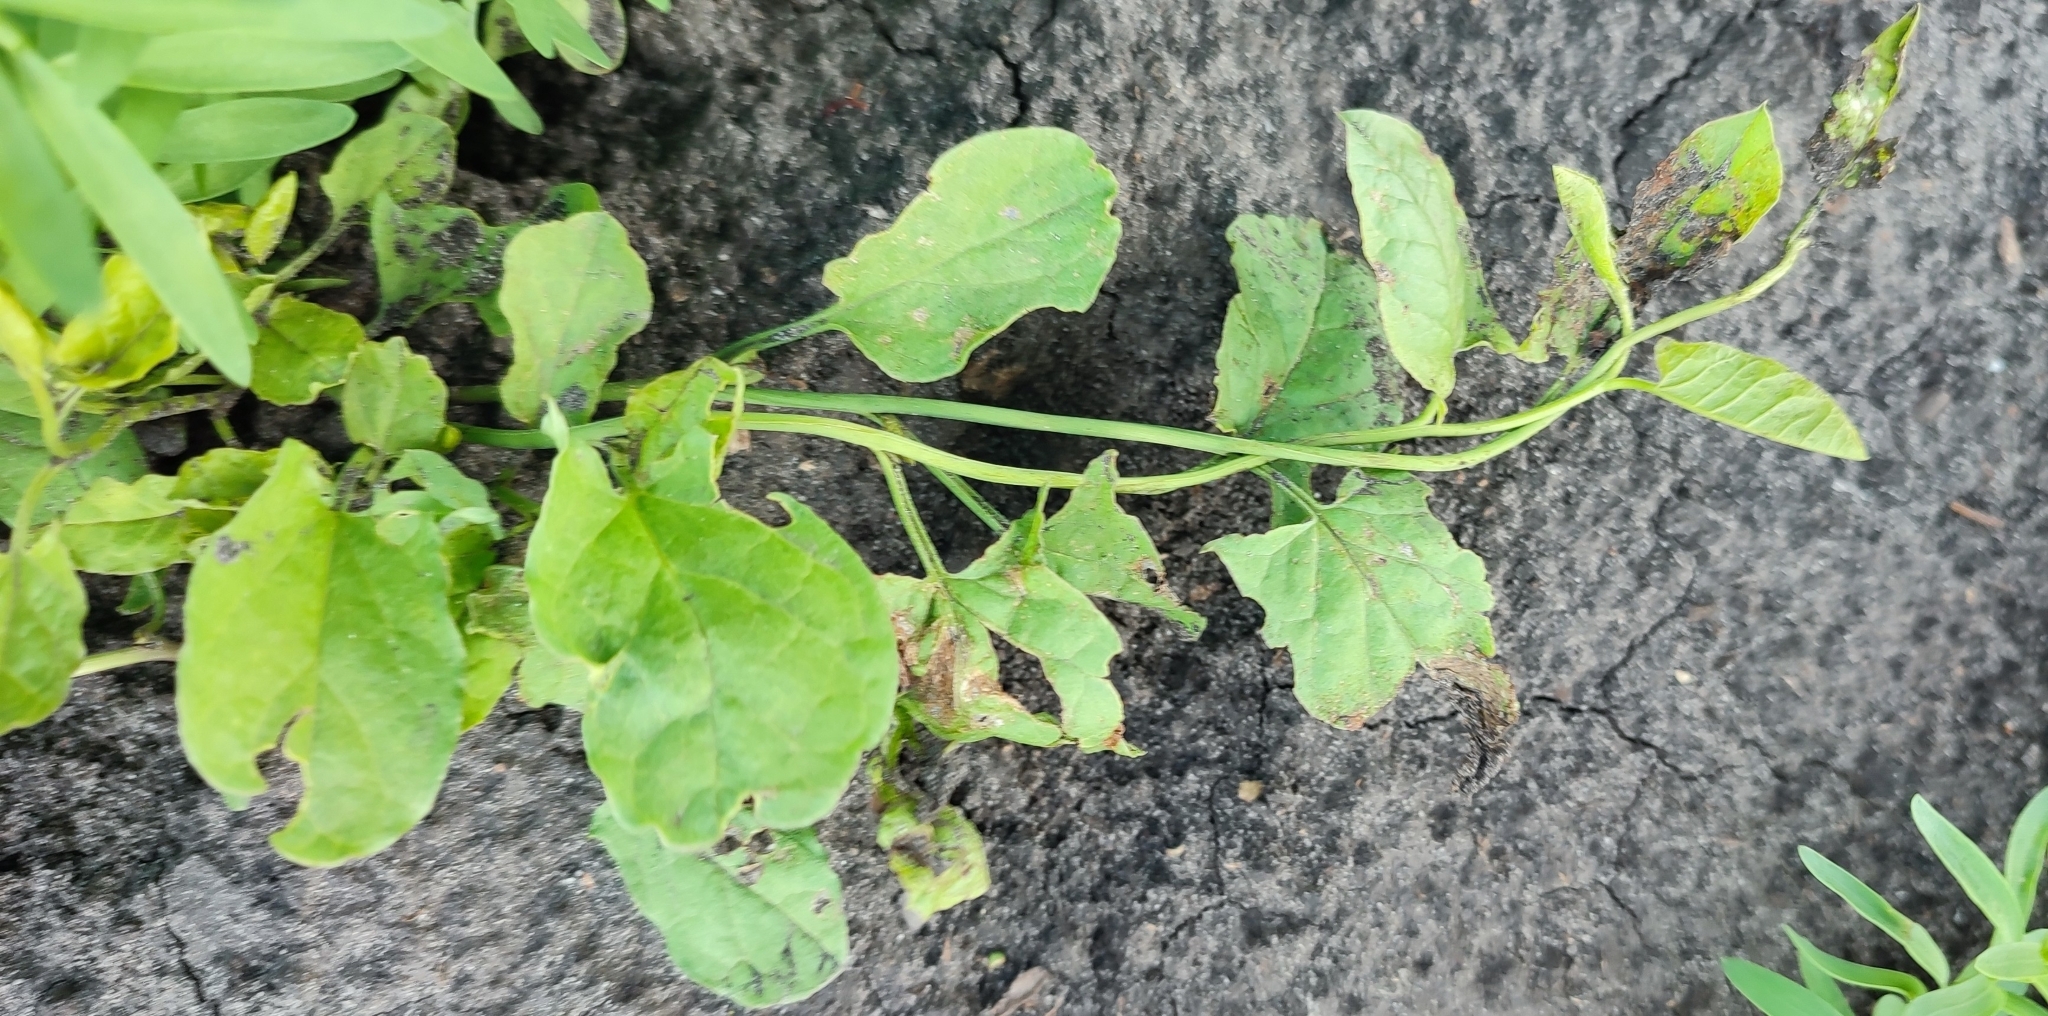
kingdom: Plantae
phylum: Tracheophyta
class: Magnoliopsida
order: Solanales
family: Convolvulaceae
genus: Convolvulus
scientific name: Convolvulus arvensis
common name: Field bindweed
